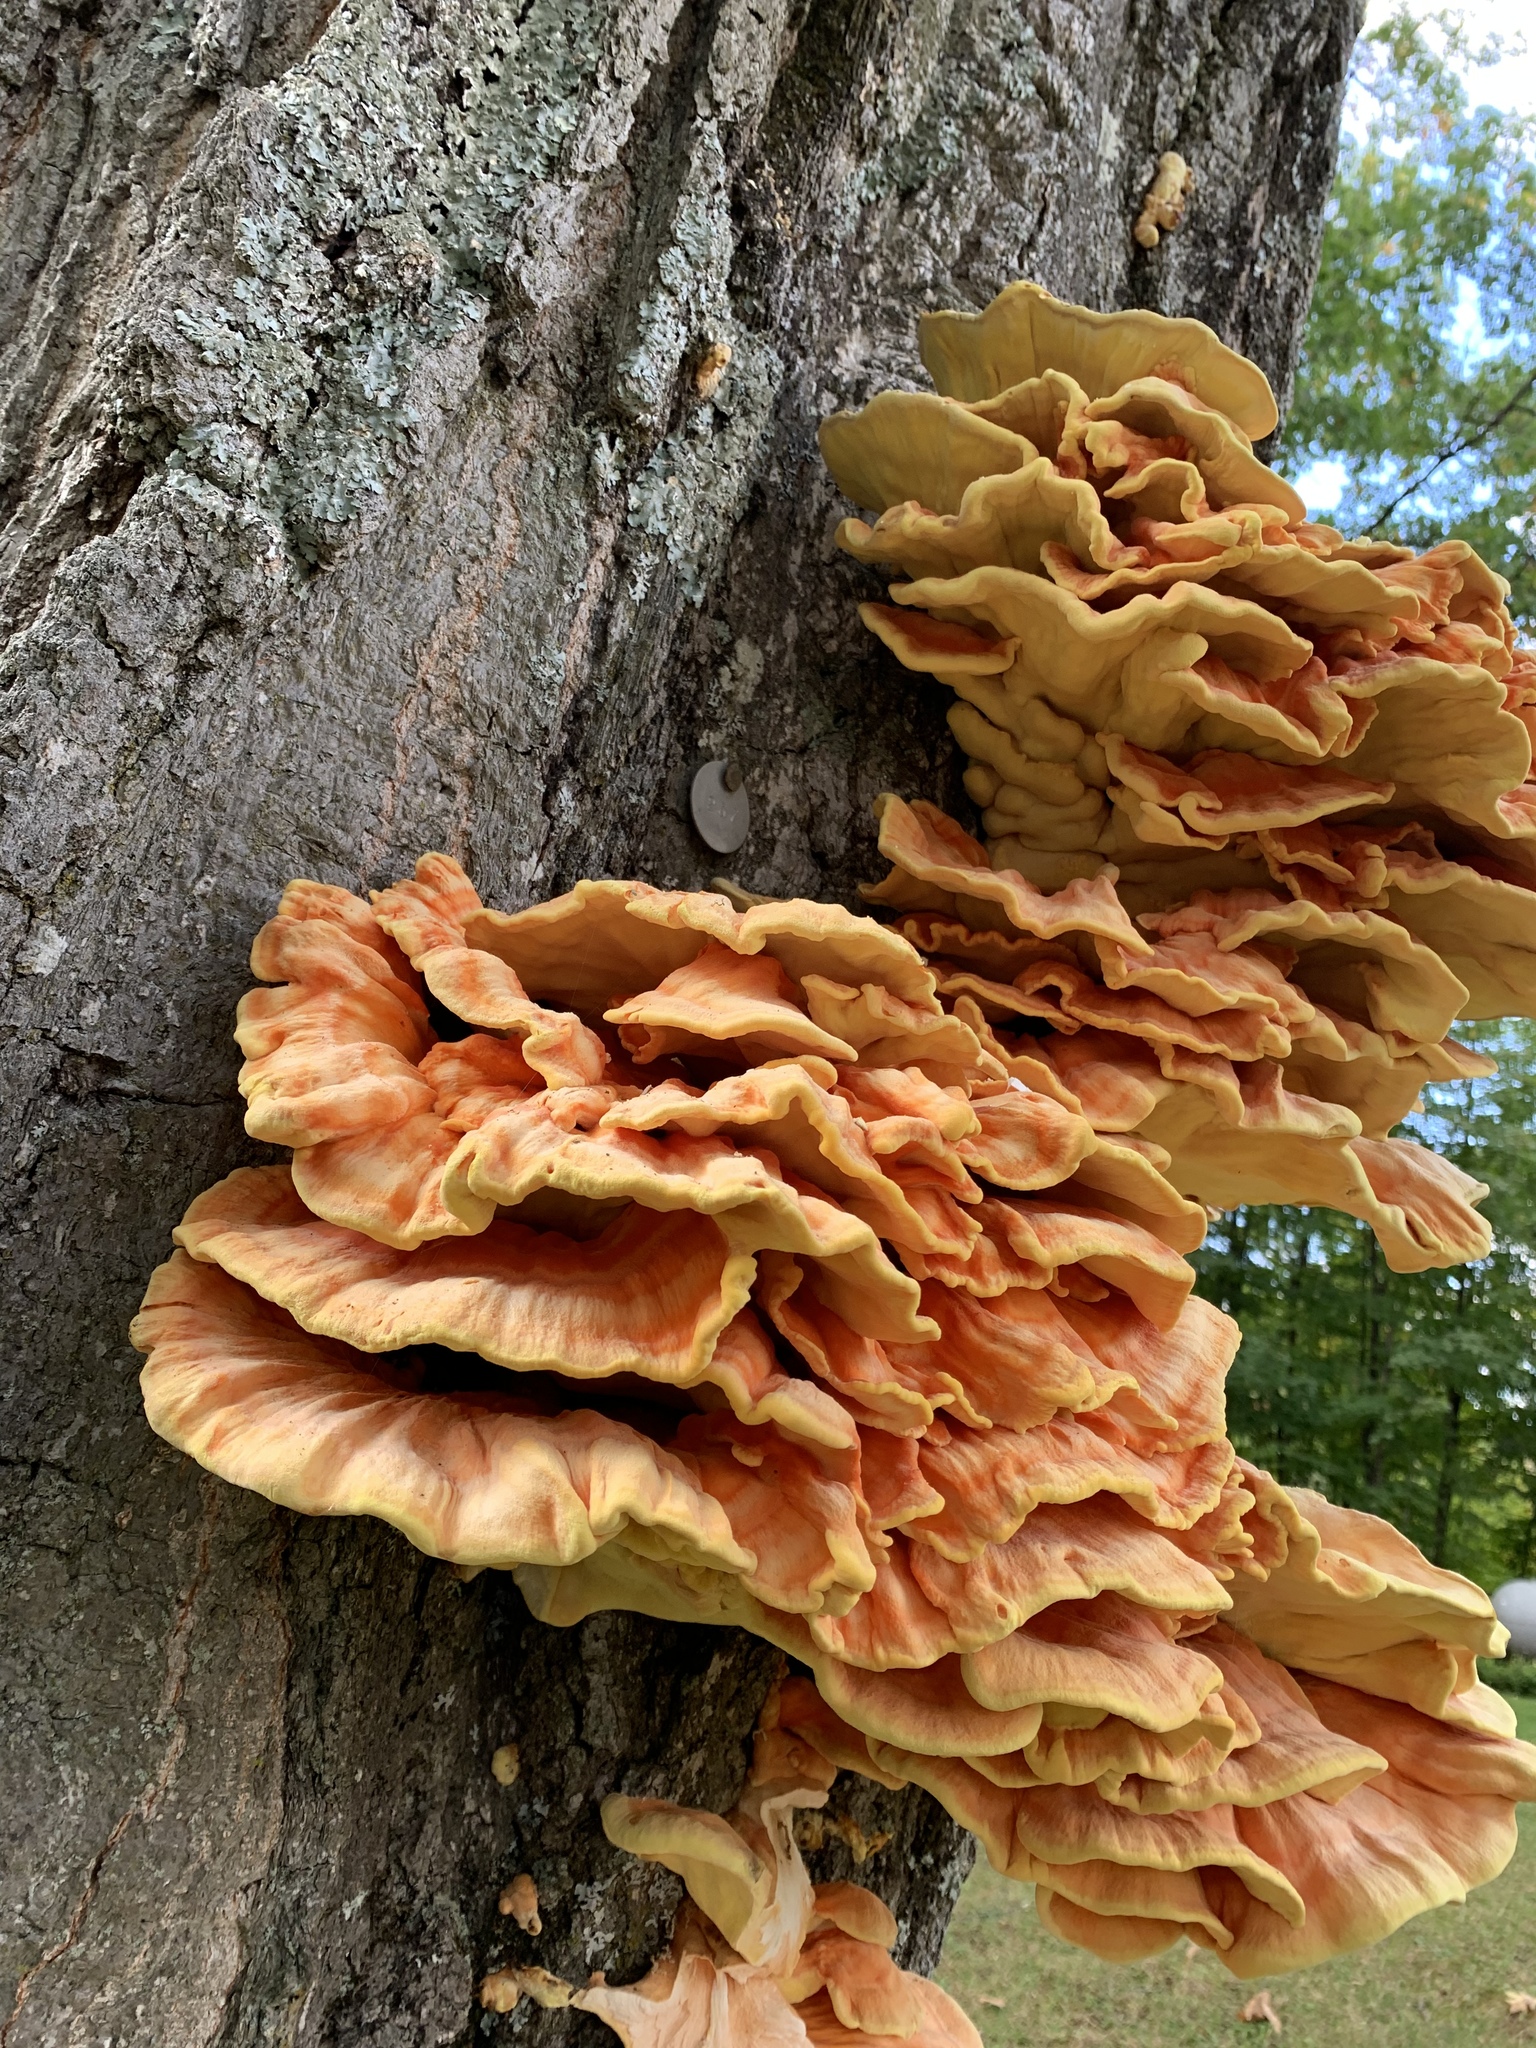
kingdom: Fungi
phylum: Basidiomycota
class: Agaricomycetes
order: Polyporales
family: Laetiporaceae
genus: Laetiporus
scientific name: Laetiporus sulphureus
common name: Chicken of the woods
